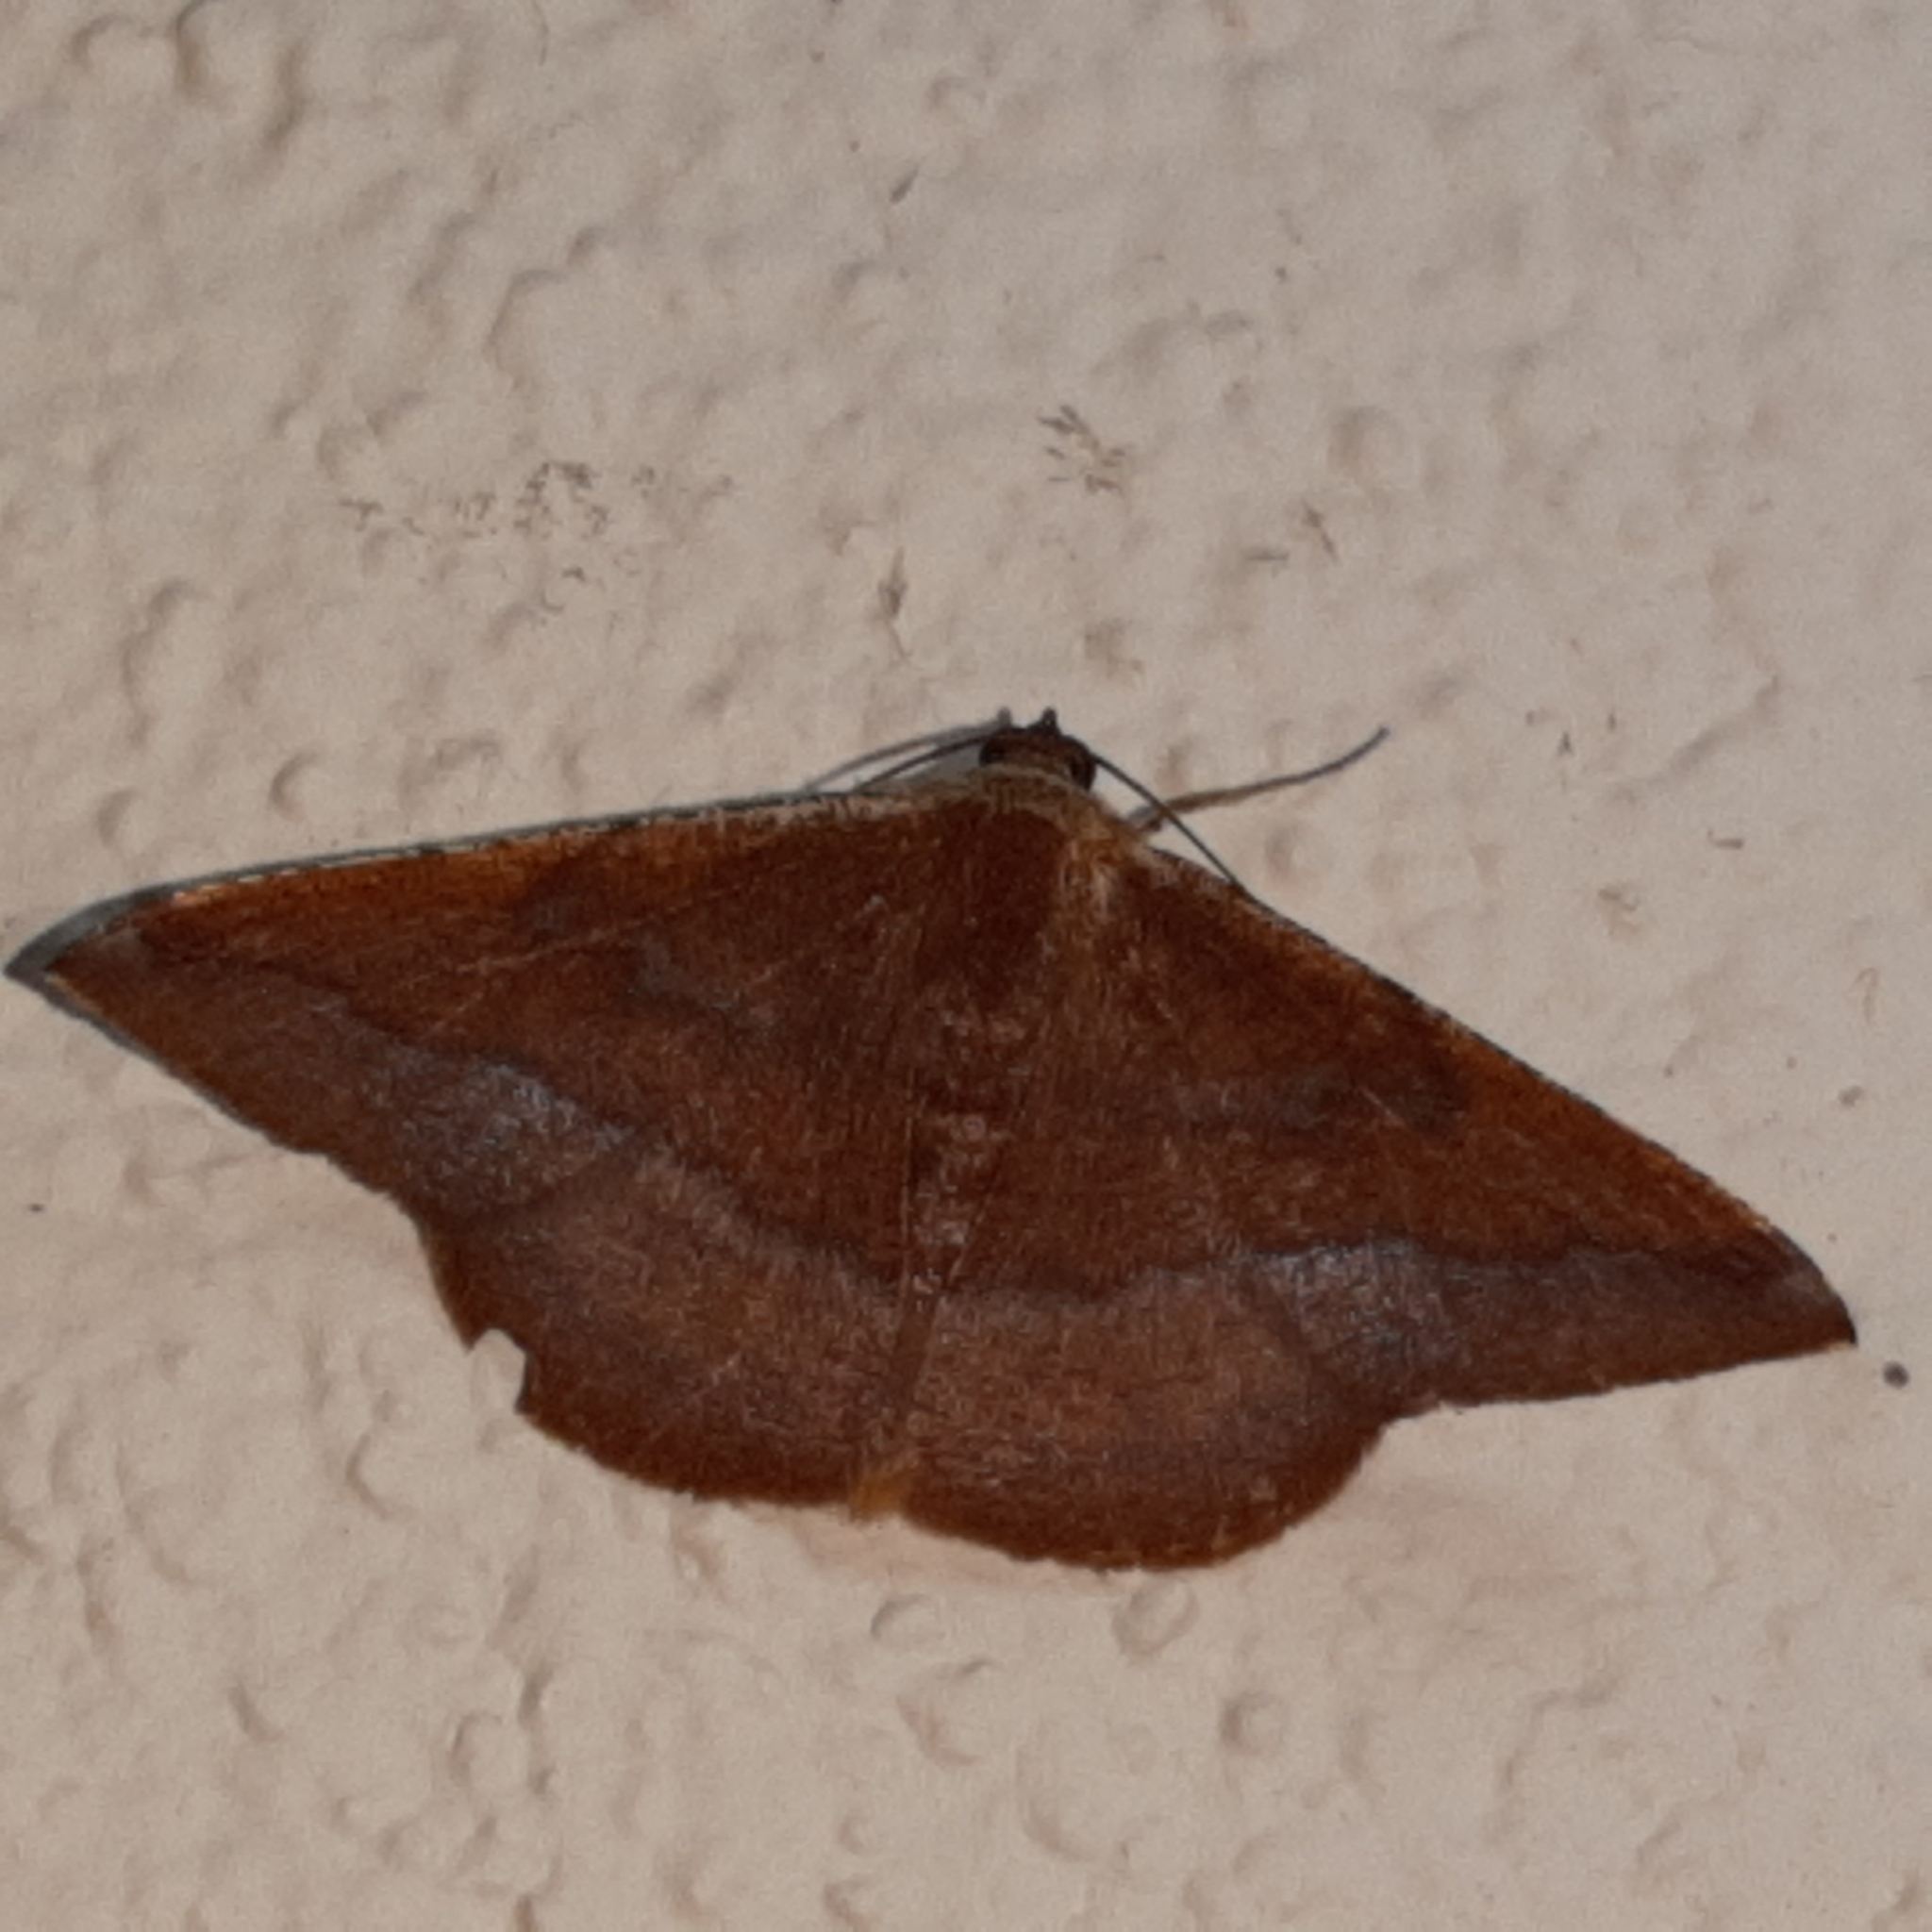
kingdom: Animalia
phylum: Arthropoda
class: Insecta
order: Lepidoptera
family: Geometridae
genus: Pyrinia
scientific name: Pyrinia optivata
